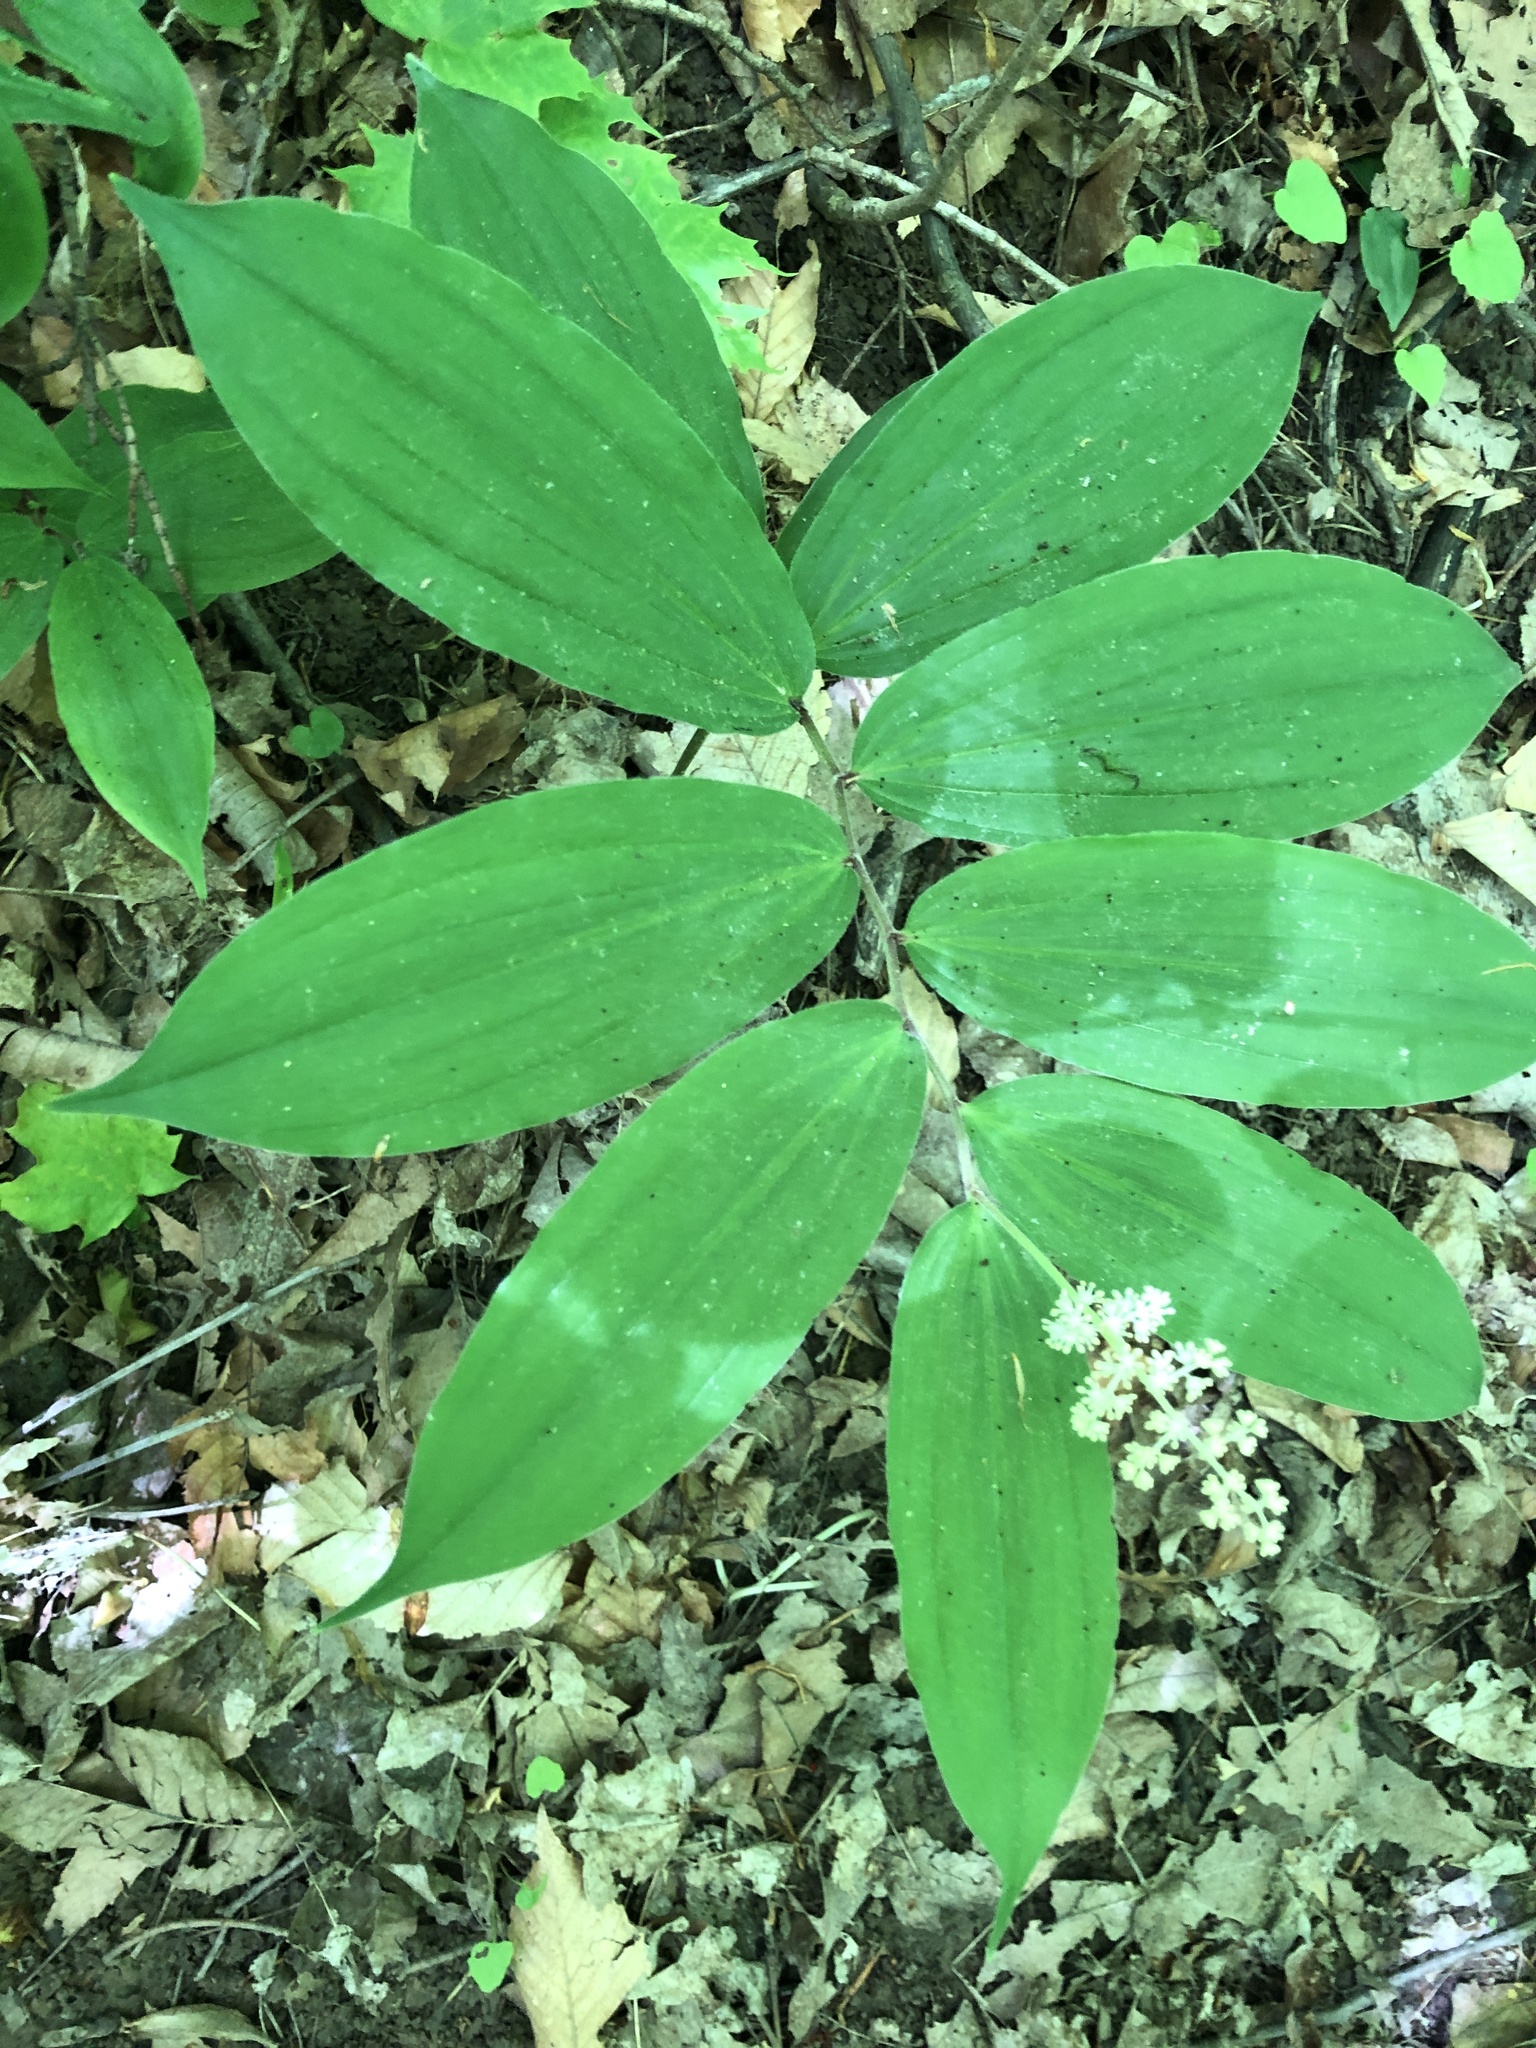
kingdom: Plantae
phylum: Tracheophyta
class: Liliopsida
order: Asparagales
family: Asparagaceae
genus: Maianthemum
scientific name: Maianthemum racemosum
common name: False spikenard
